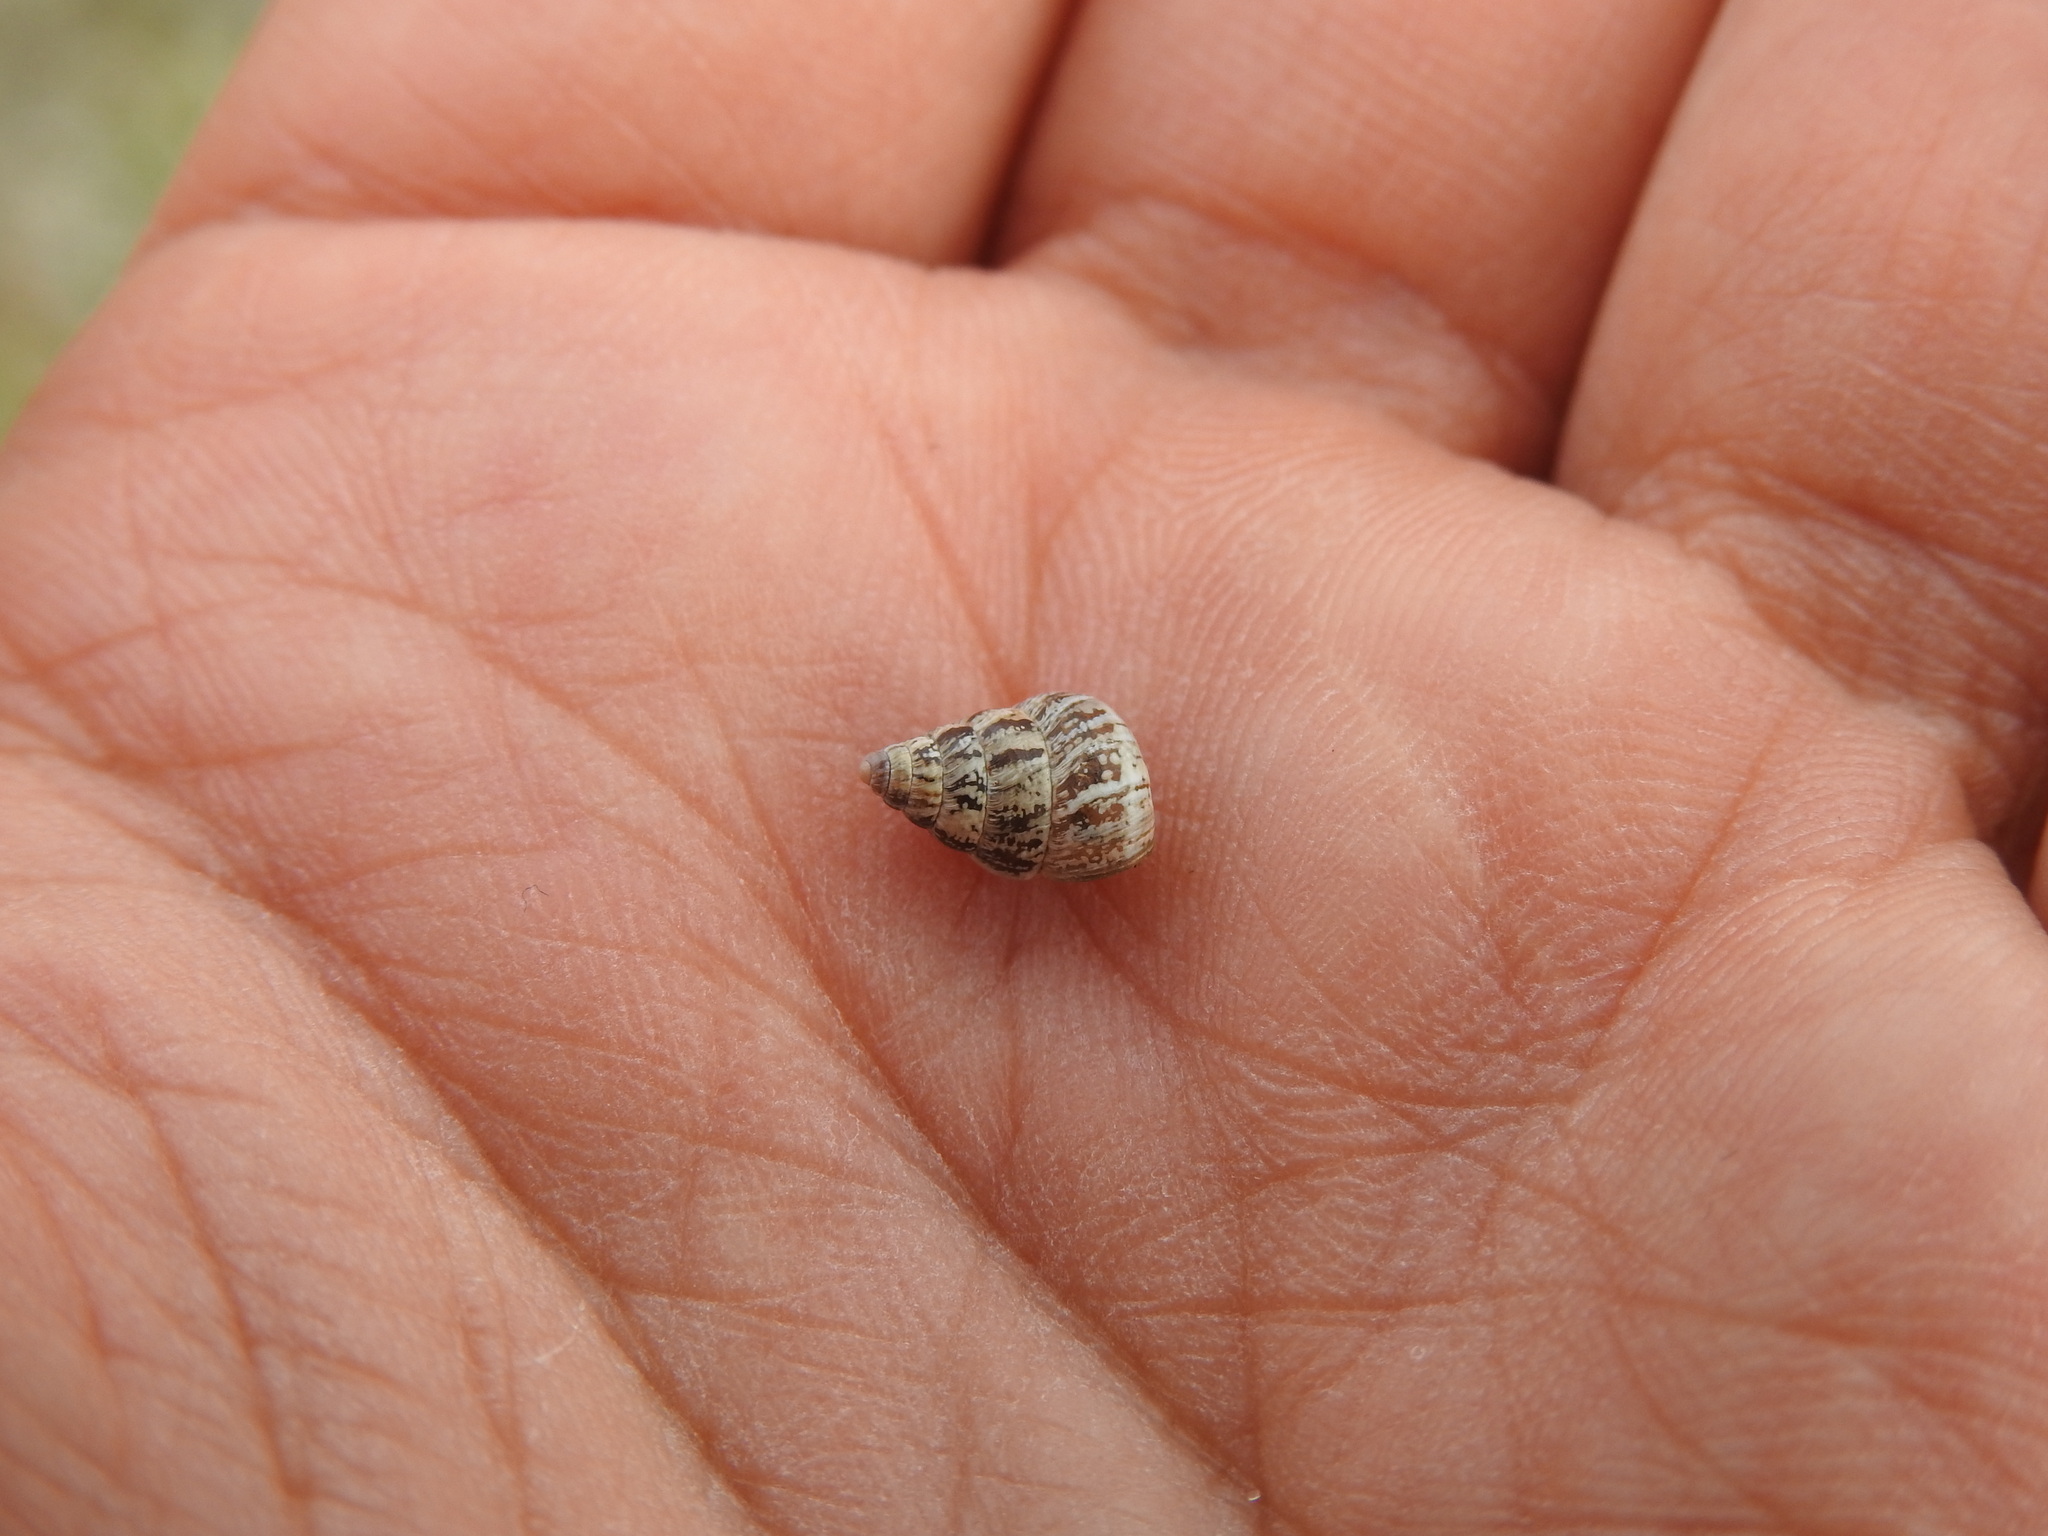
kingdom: Animalia
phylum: Mollusca
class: Gastropoda
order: Stylommatophora
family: Geomitridae
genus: Cochlicella
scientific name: Cochlicella barbara
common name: Potbellied helicellid
